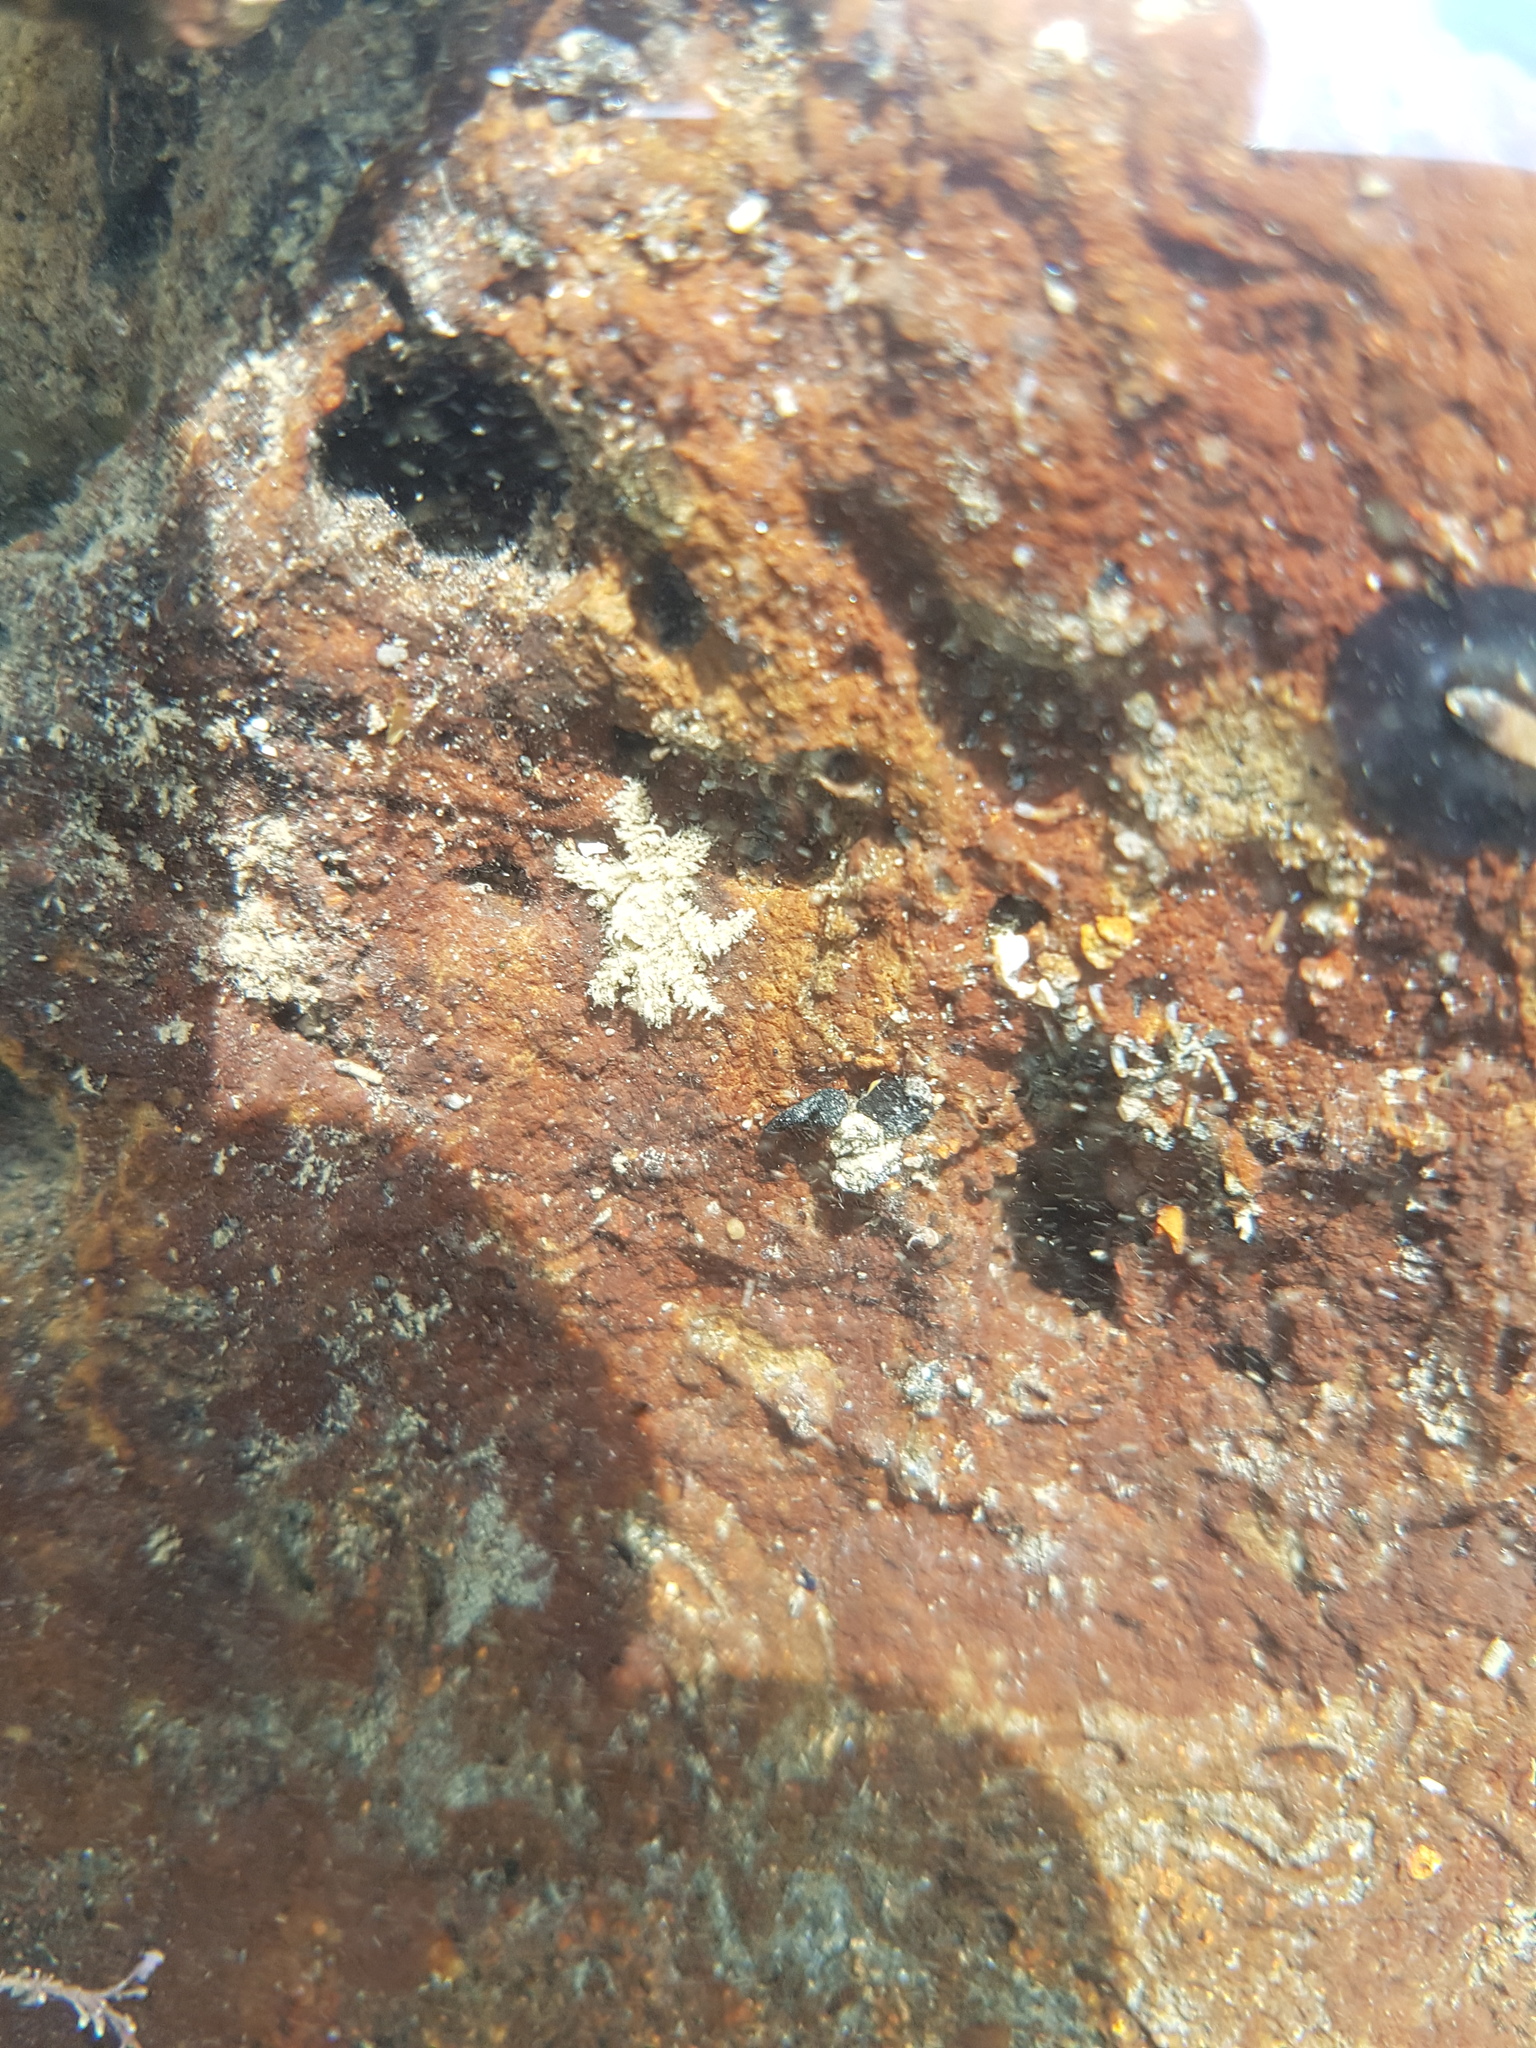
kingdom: Animalia
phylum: Arthropoda
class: Malacostraca
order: Decapoda
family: Hymenosomatidae
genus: Neohymenicus
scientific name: Neohymenicus pubescens
